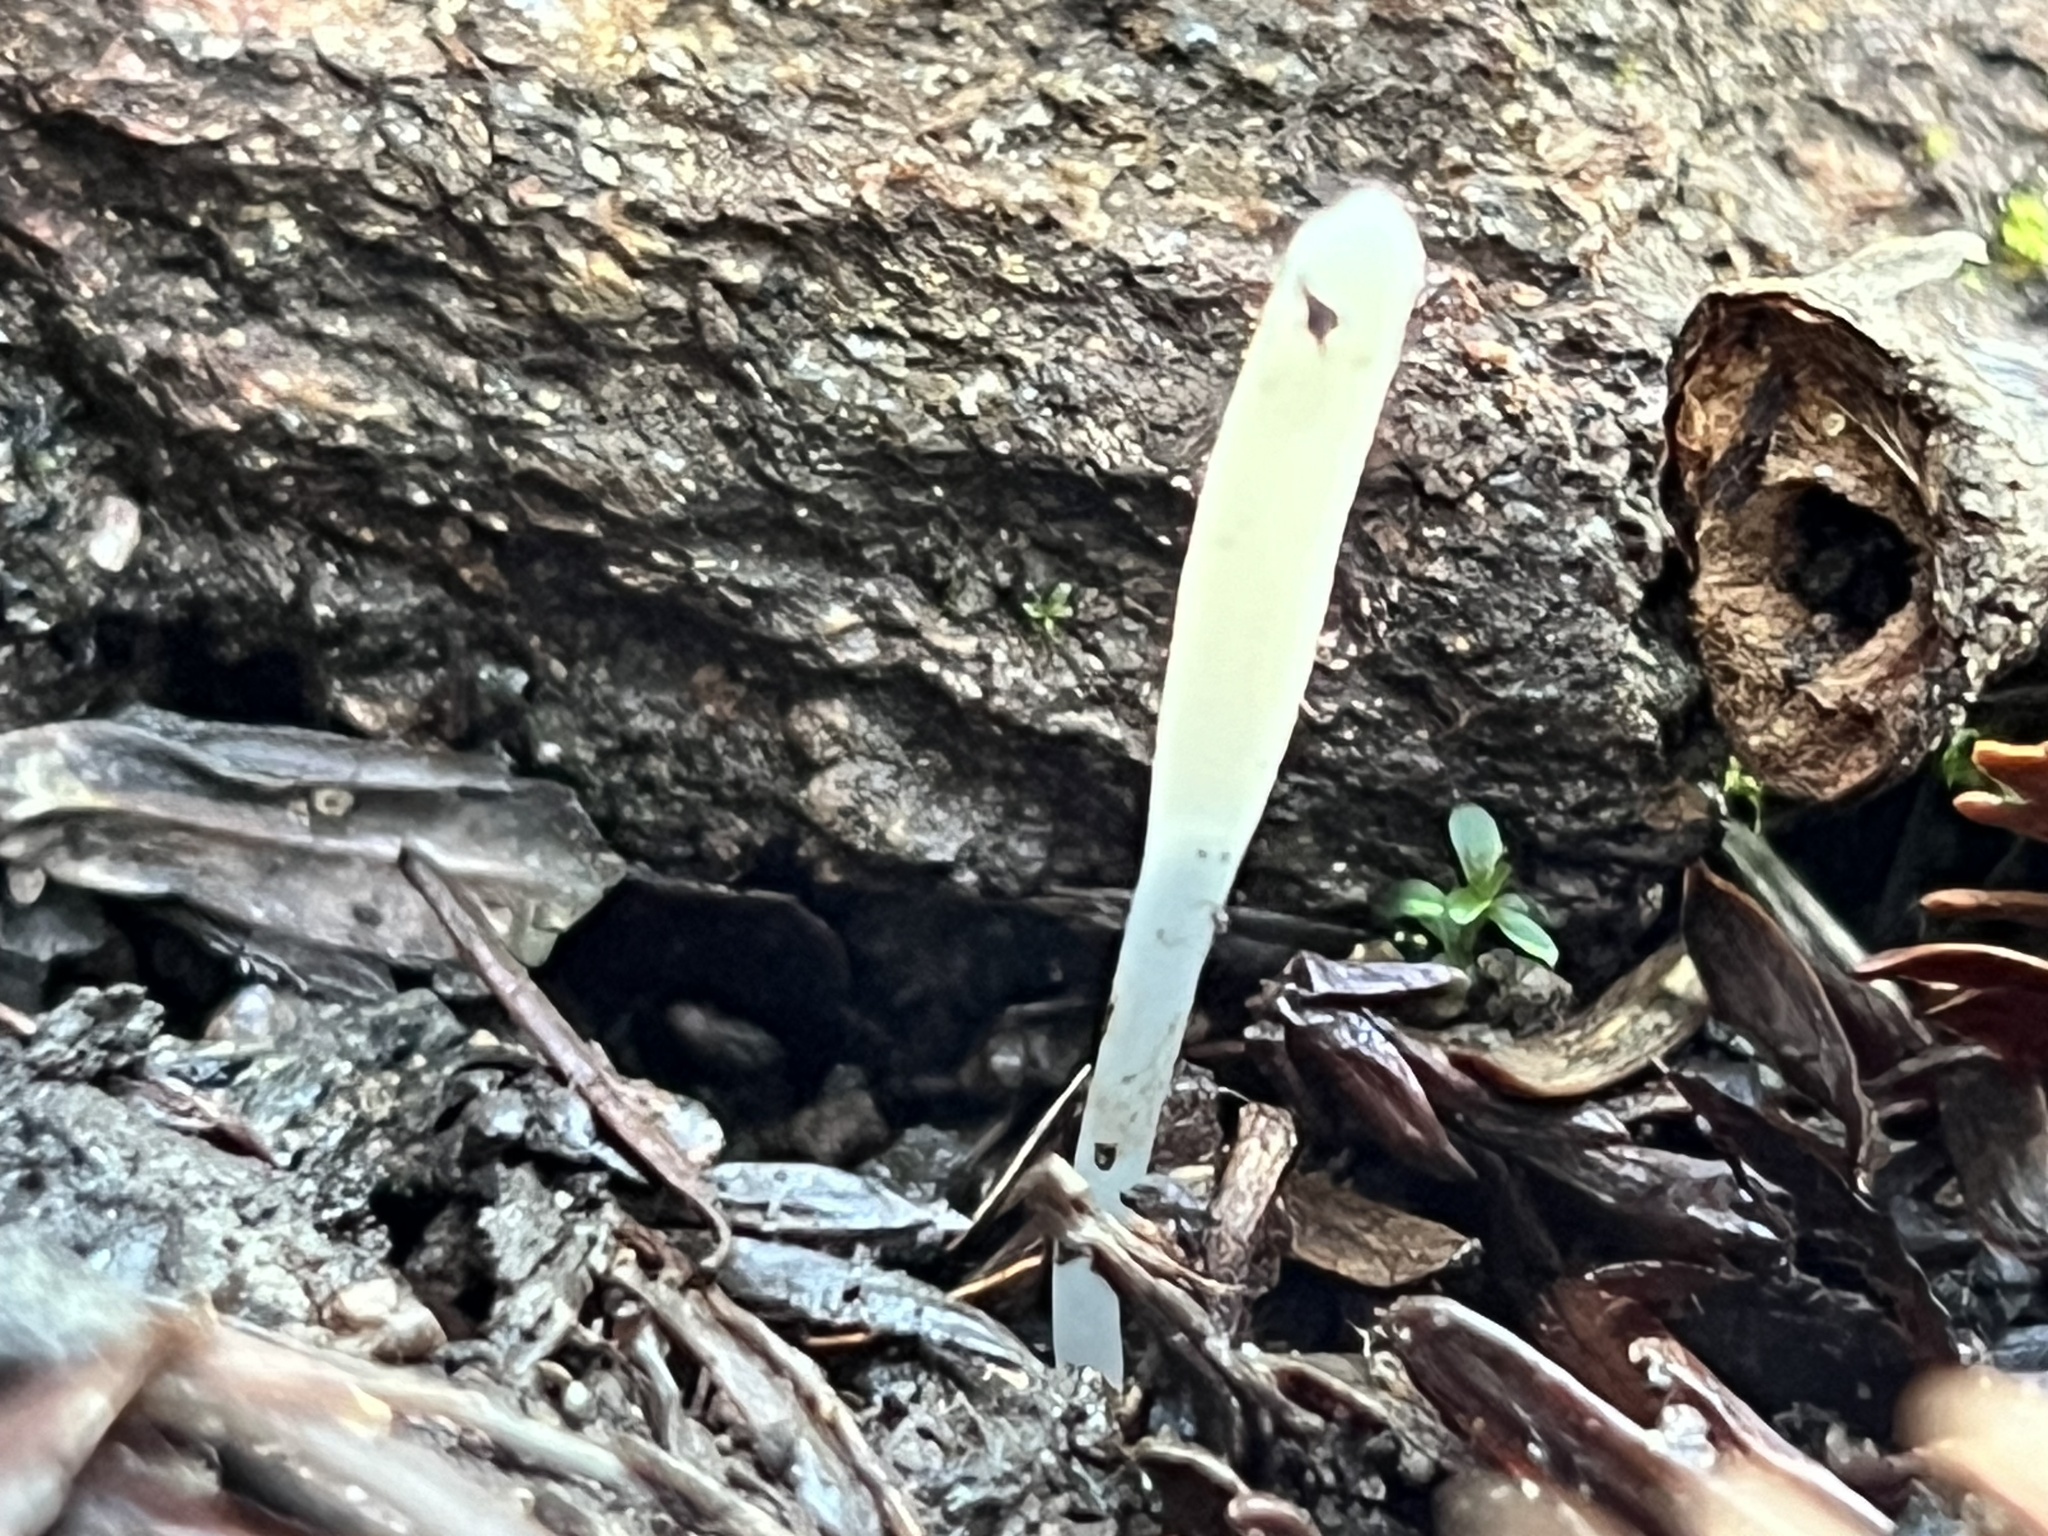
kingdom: Fungi
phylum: Basidiomycota
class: Agaricomycetes
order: Agaricales
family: Clavariaceae
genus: Clavaria
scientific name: Clavaria falcata
